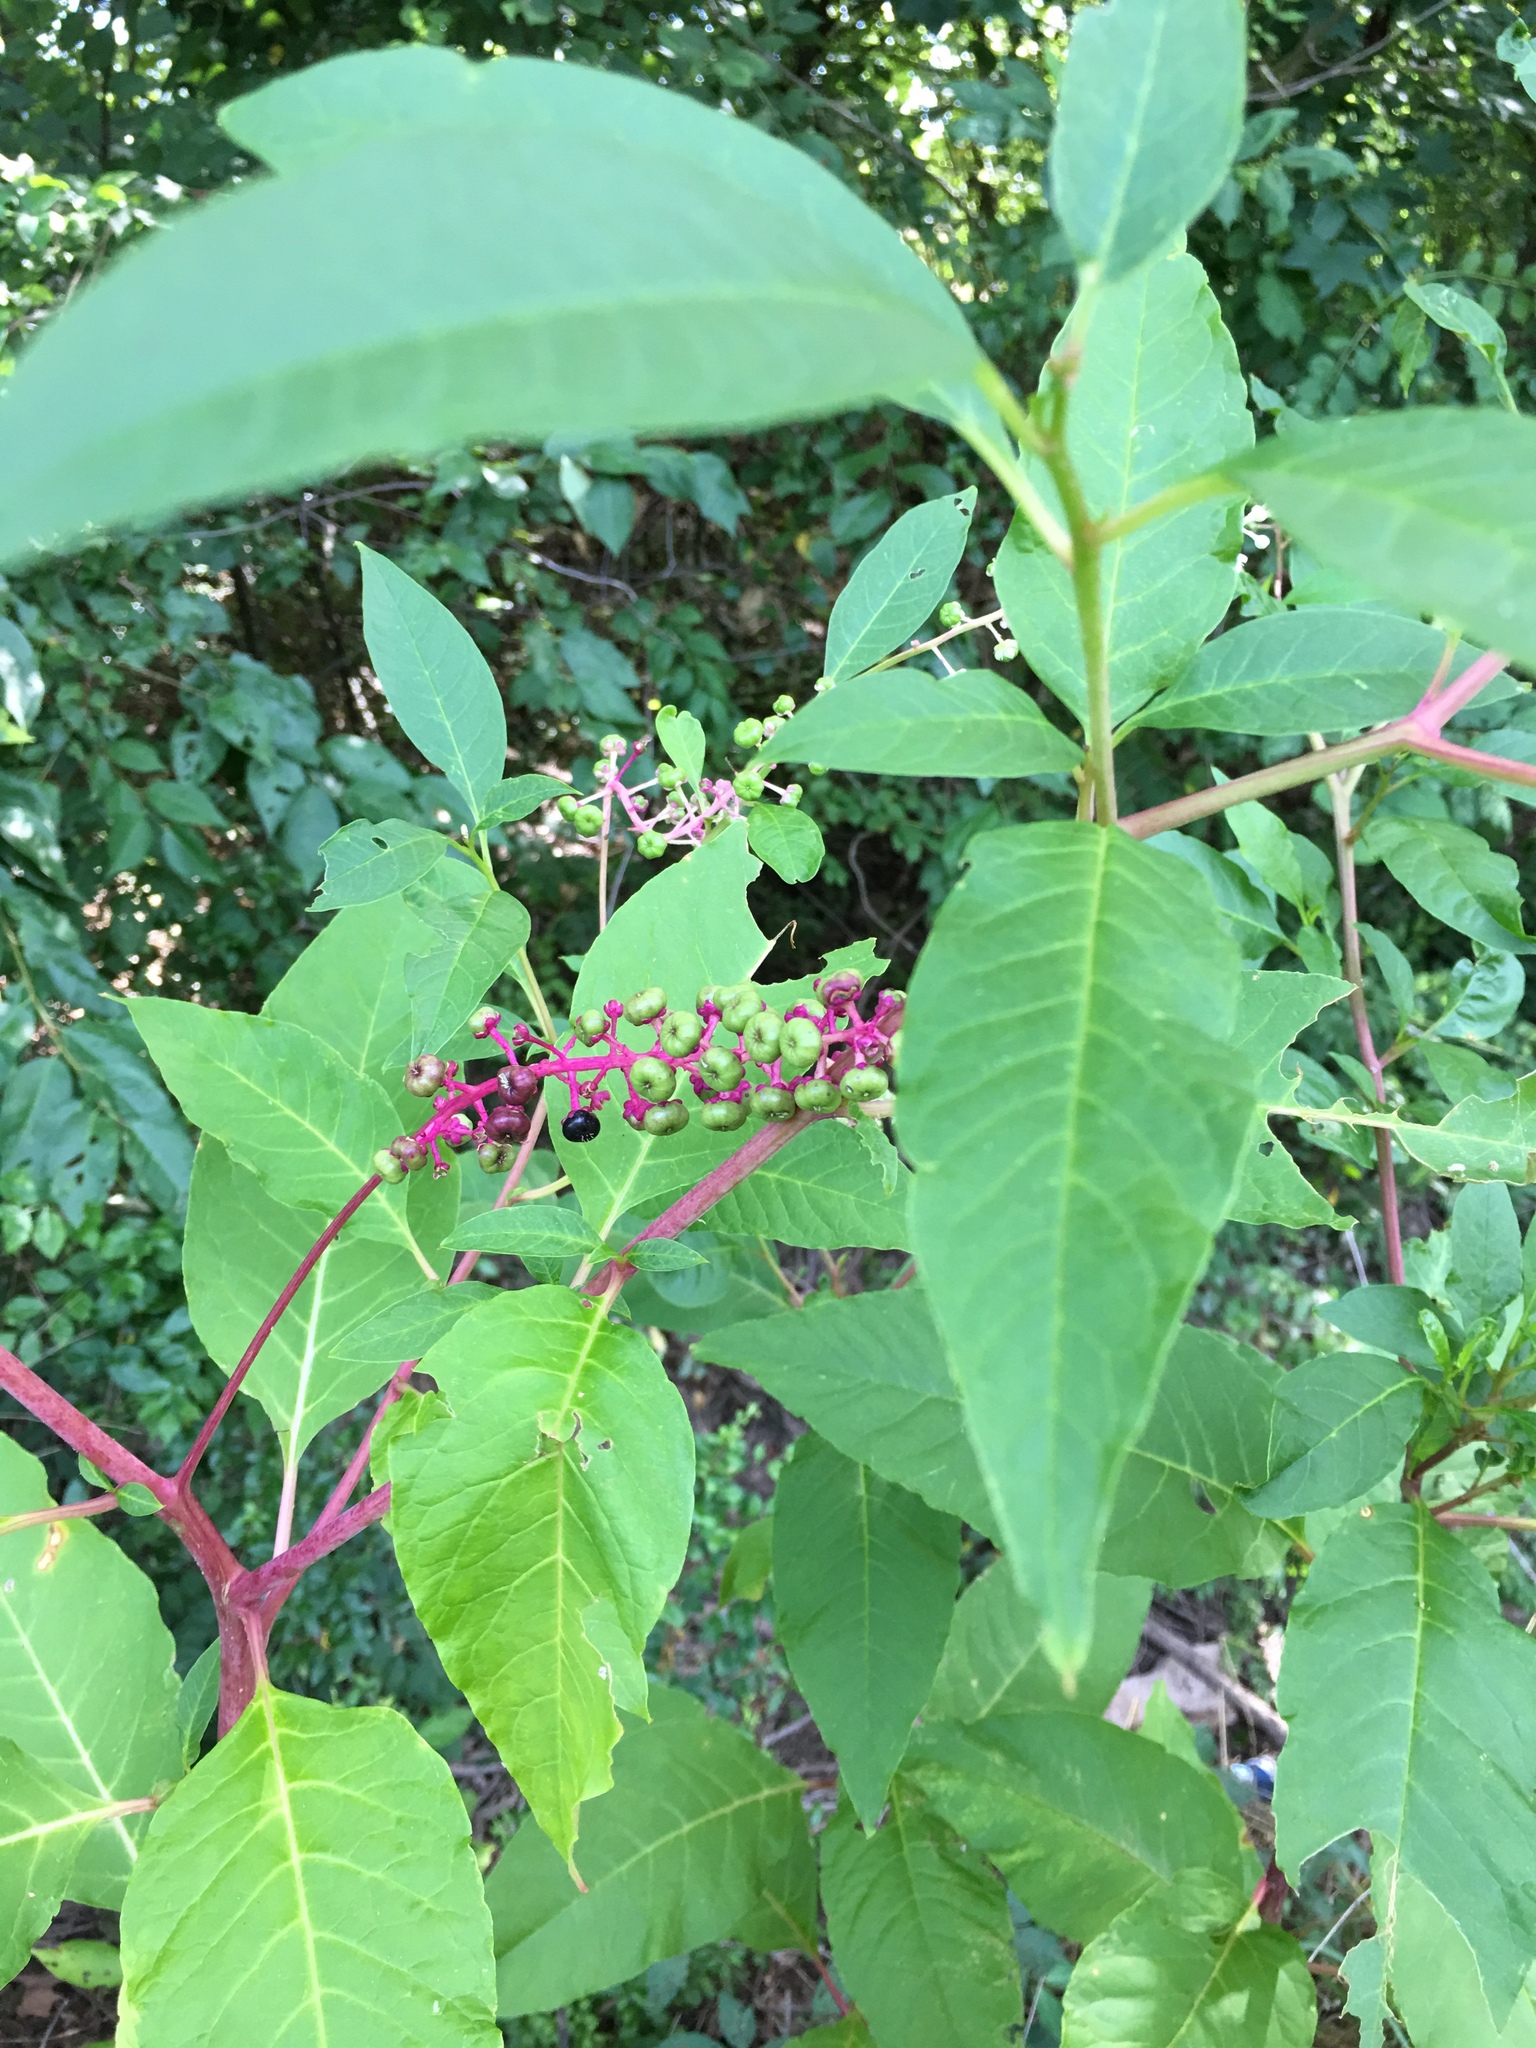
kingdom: Plantae
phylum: Tracheophyta
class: Magnoliopsida
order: Caryophyllales
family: Phytolaccaceae
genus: Phytolacca
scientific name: Phytolacca americana
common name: American pokeweed
